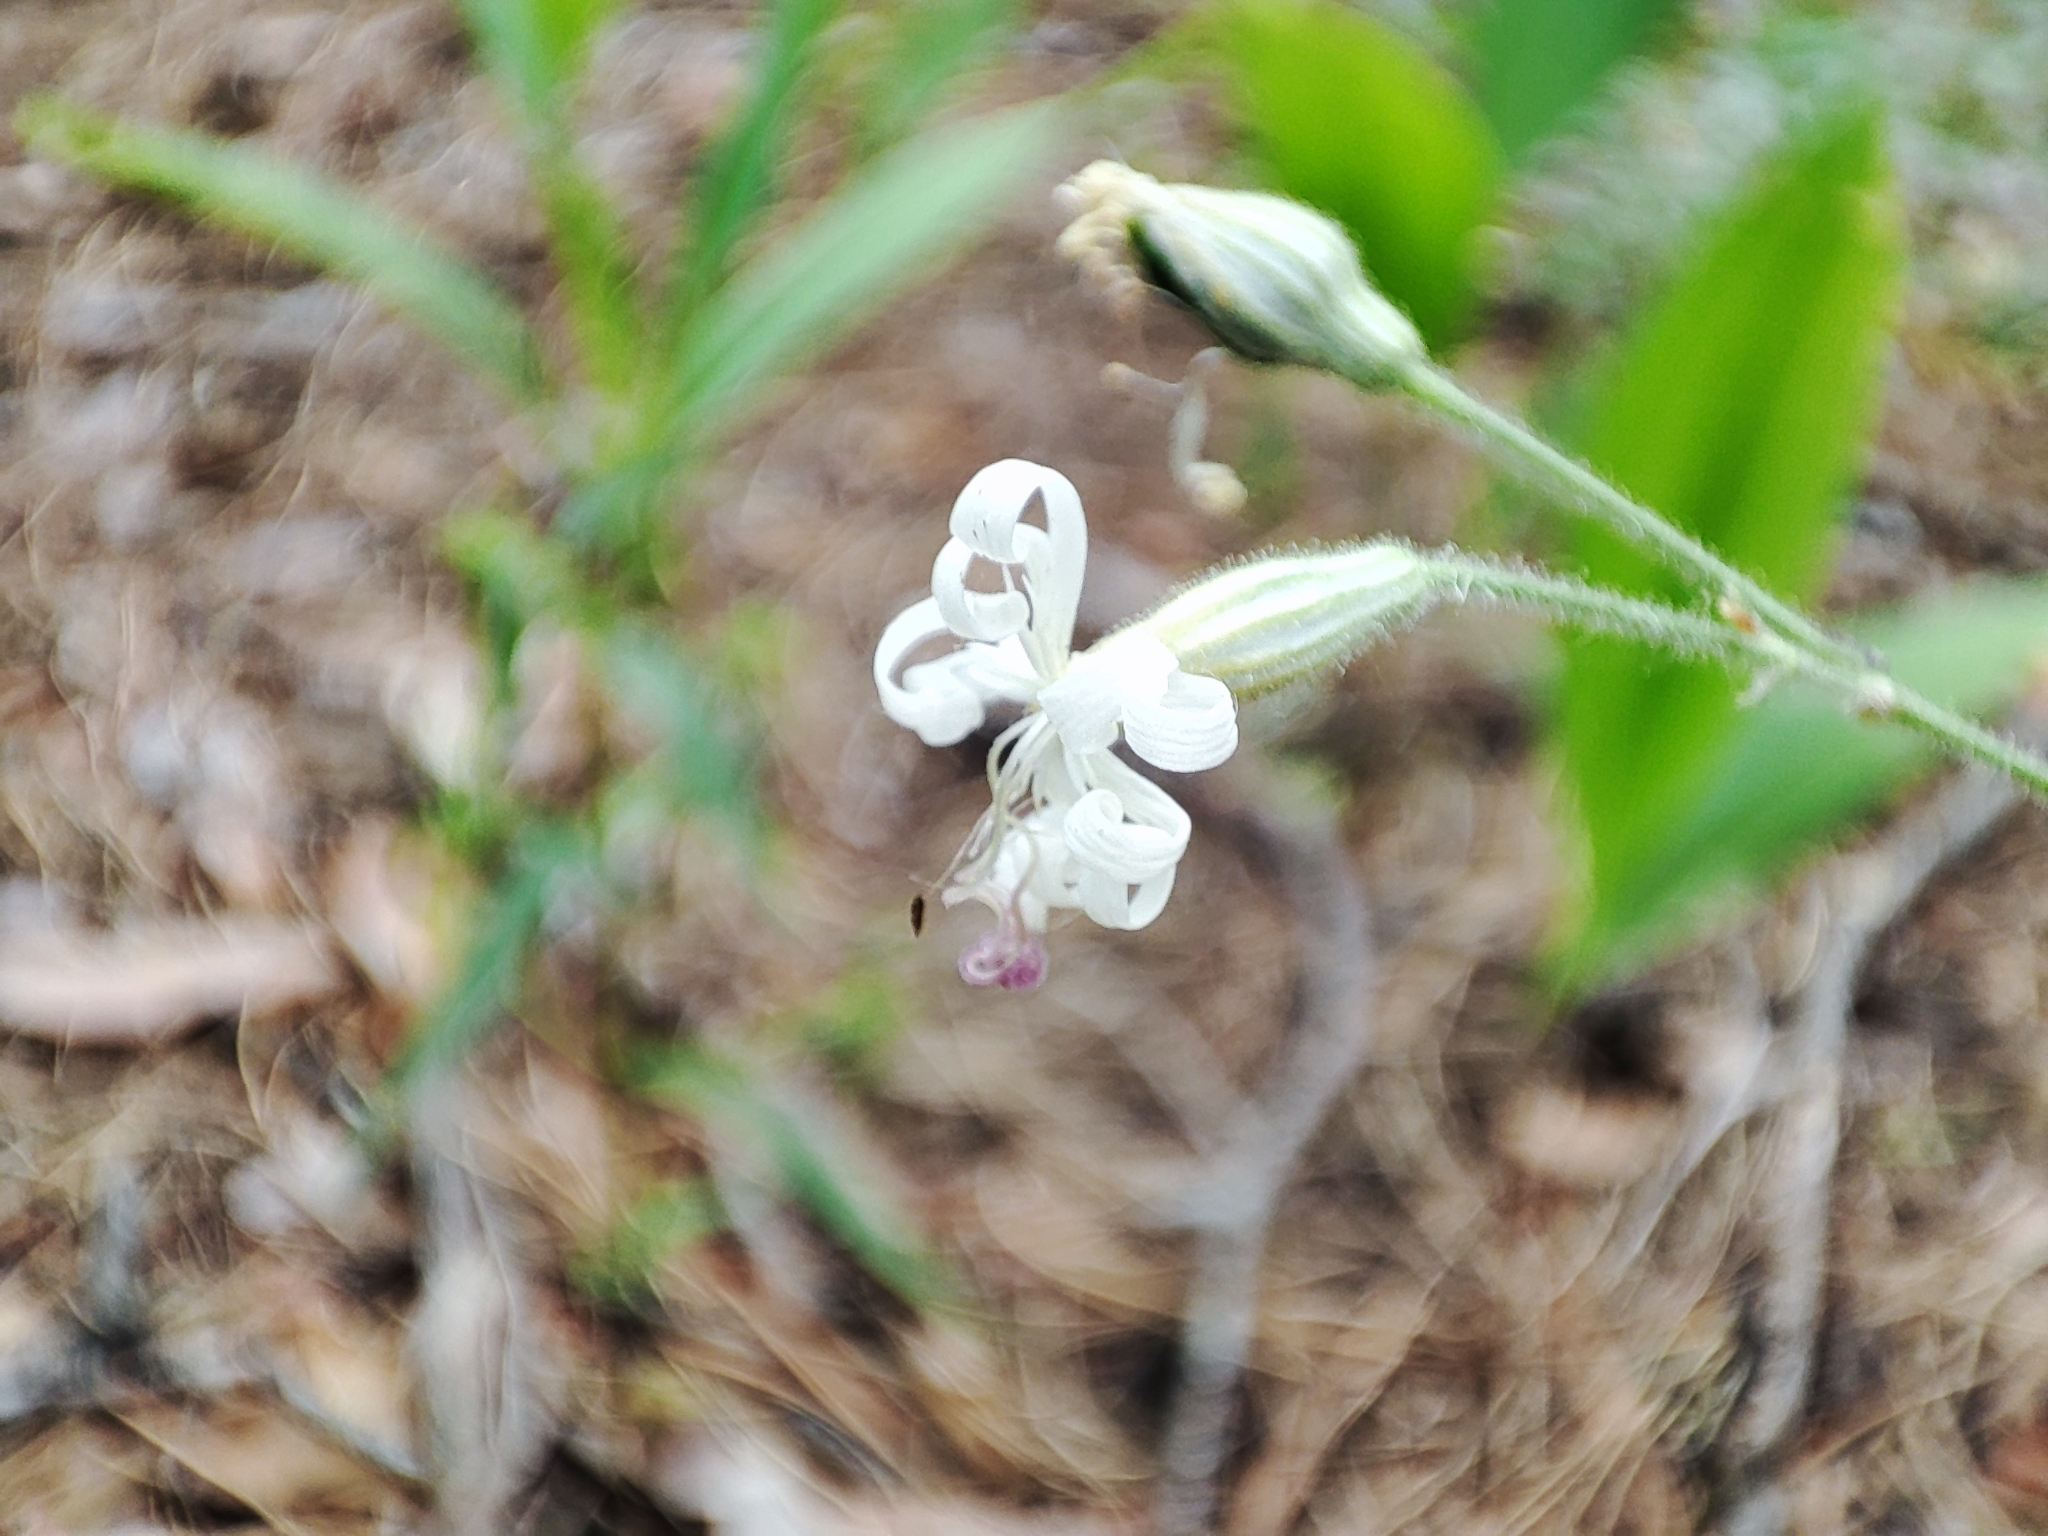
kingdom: Plantae
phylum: Tracheophyta
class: Magnoliopsida
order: Caryophyllales
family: Caryophyllaceae
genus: Silene
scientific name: Silene nutans
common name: Nottingham catchfly
